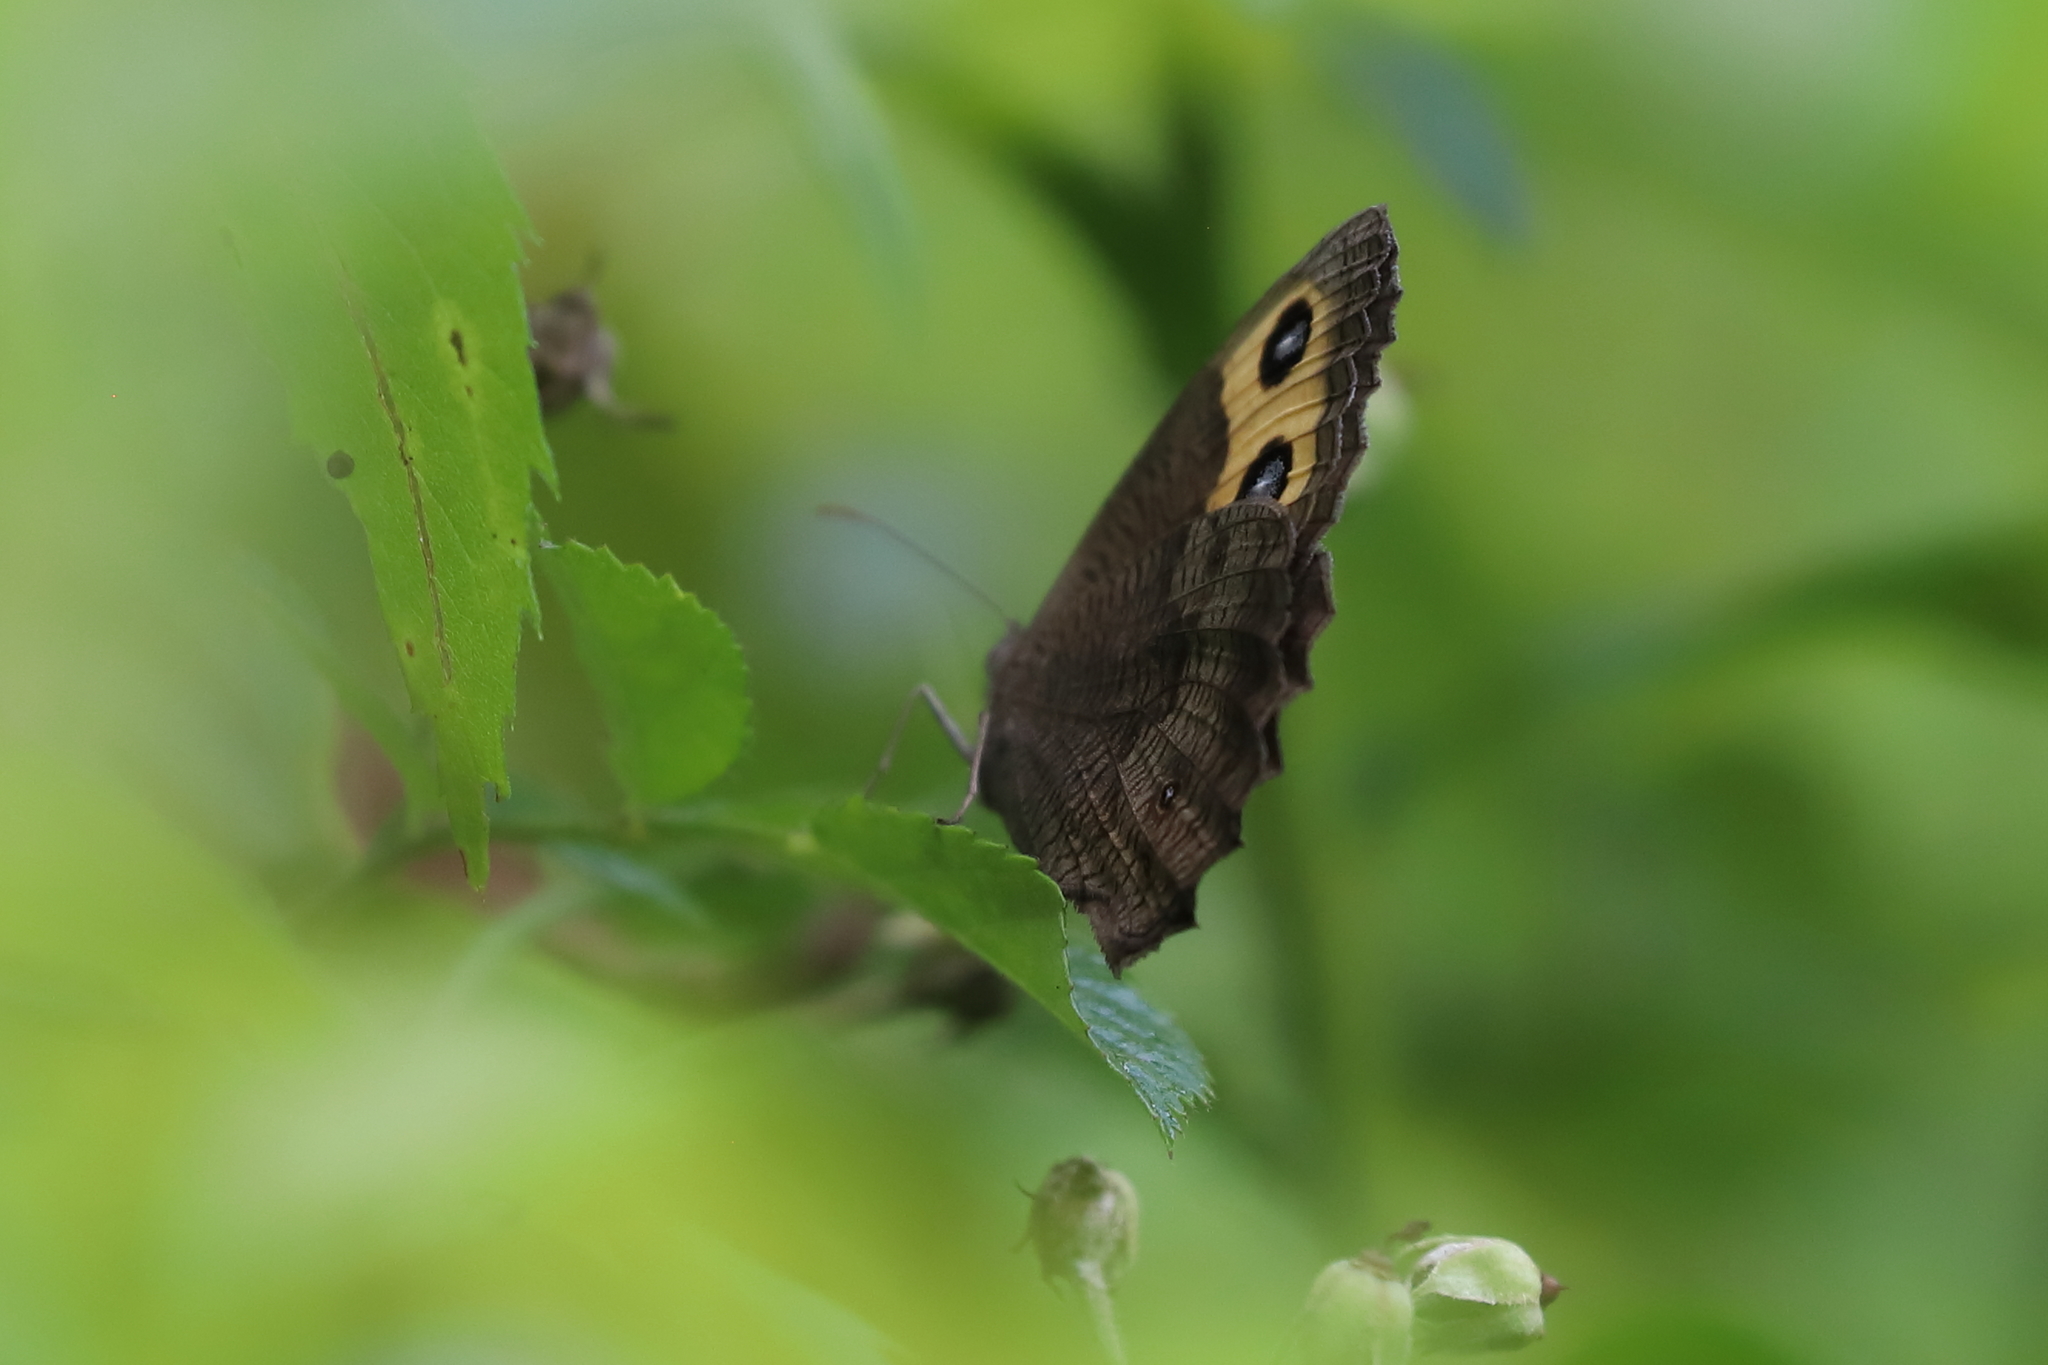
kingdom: Animalia
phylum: Arthropoda
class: Insecta
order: Lepidoptera
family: Nymphalidae
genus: Cercyonis
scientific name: Cercyonis pegala
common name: Common wood-nymph
